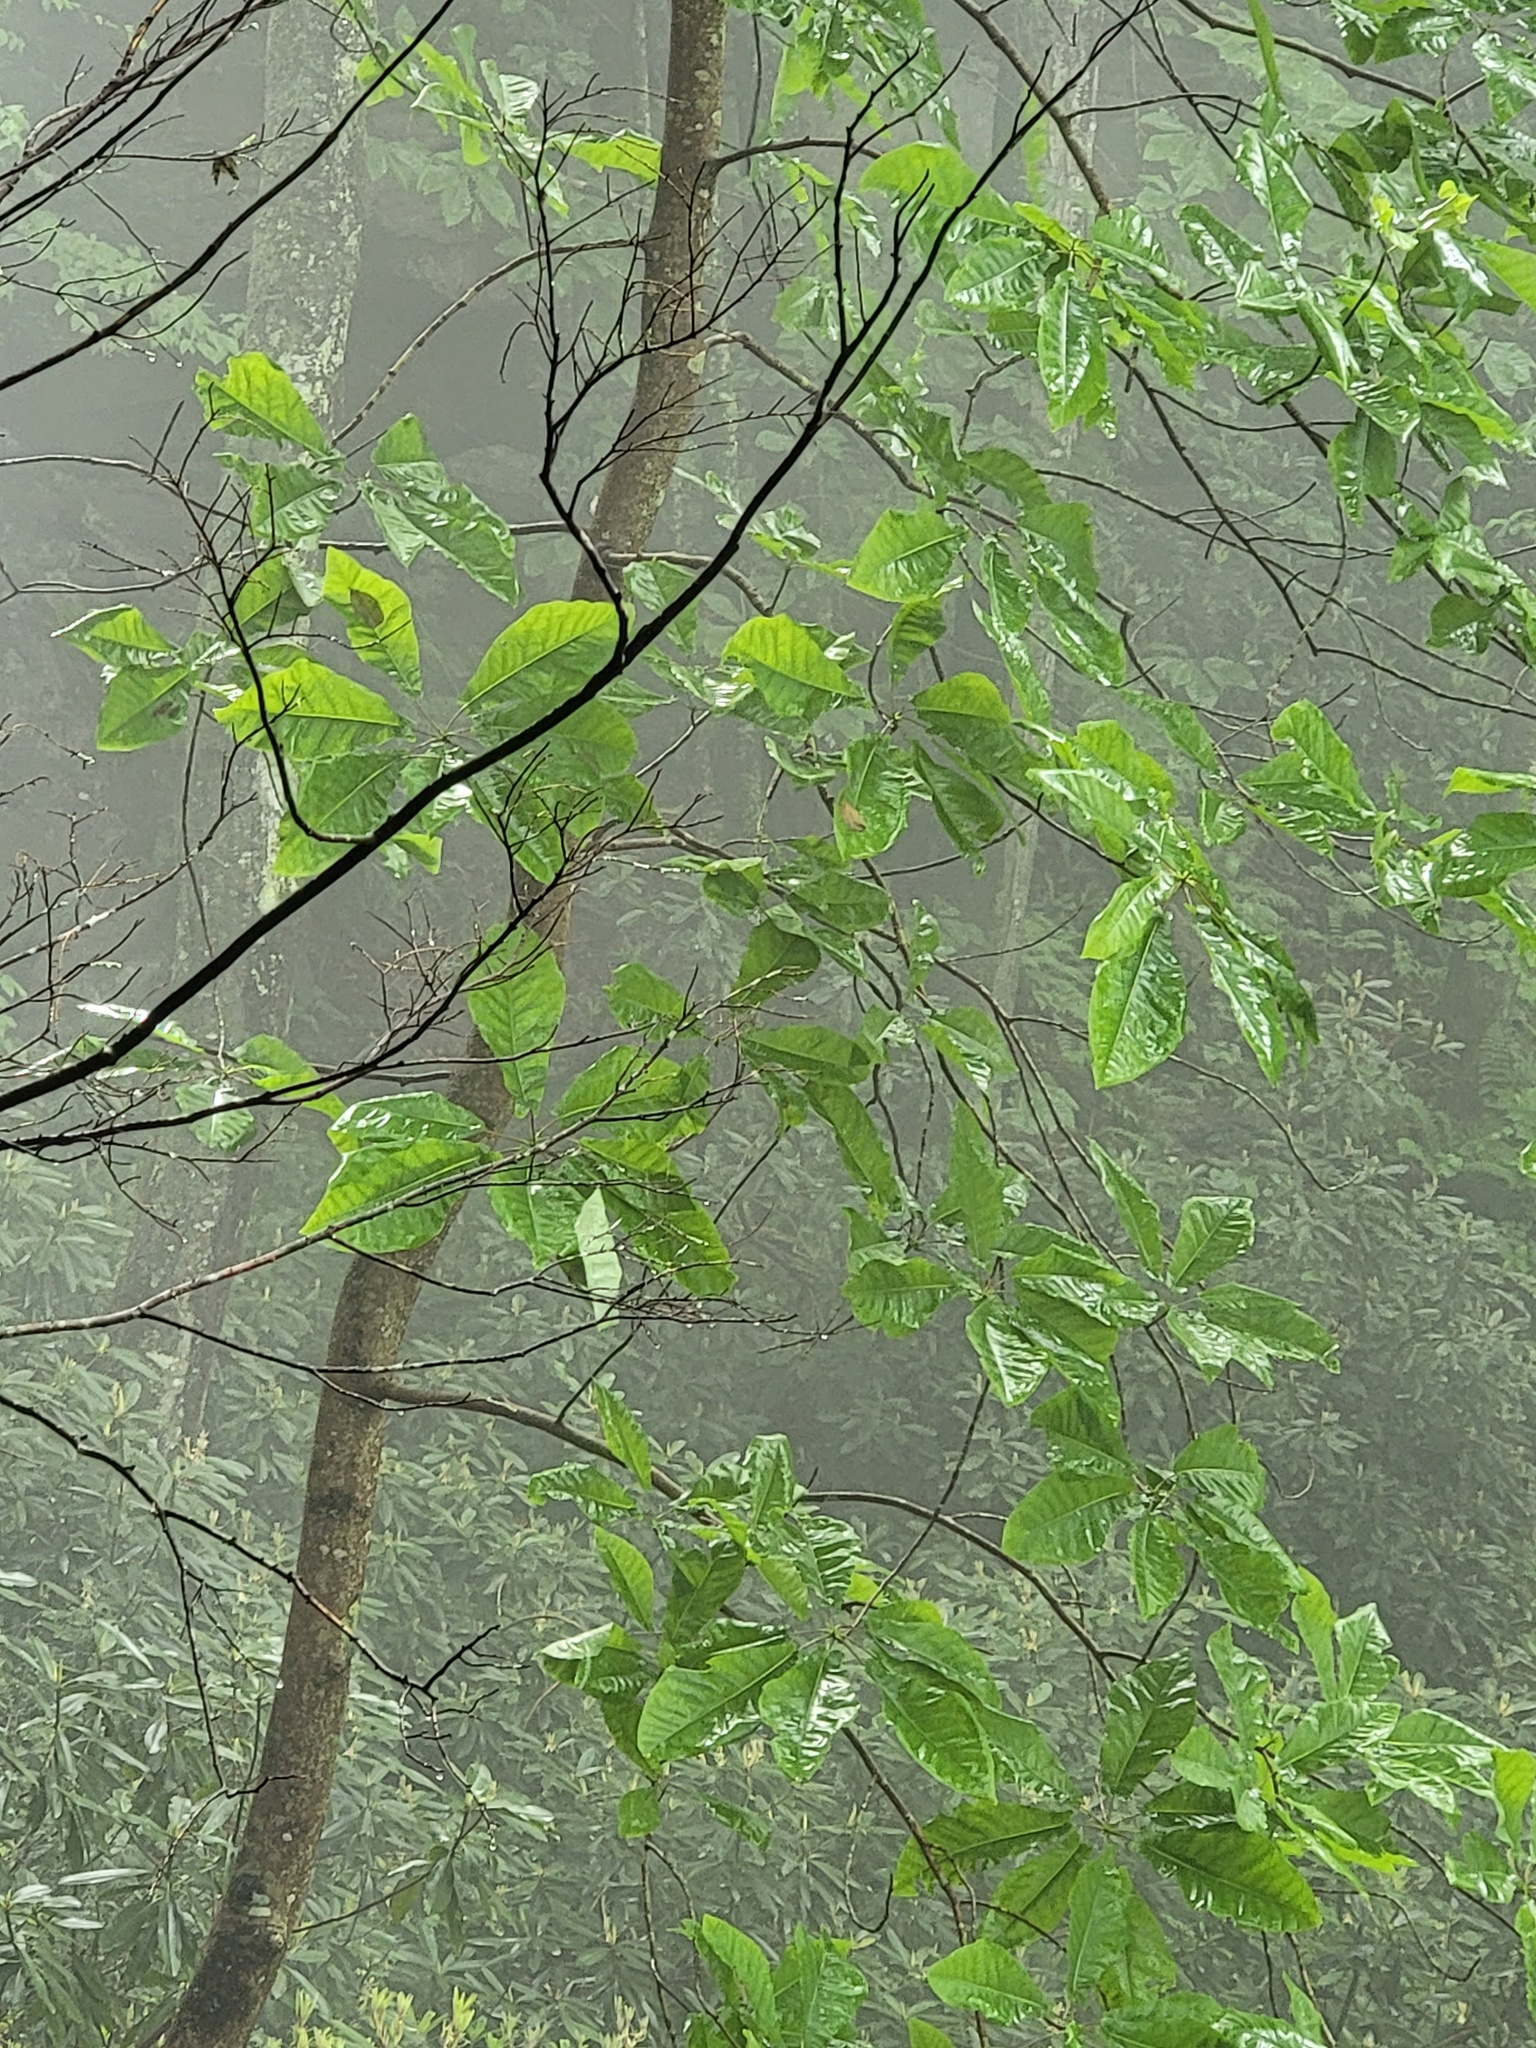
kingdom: Plantae
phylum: Tracheophyta
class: Magnoliopsida
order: Magnoliales
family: Magnoliaceae
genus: Magnolia
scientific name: Magnolia fraseri
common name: Fraser's magnolia
